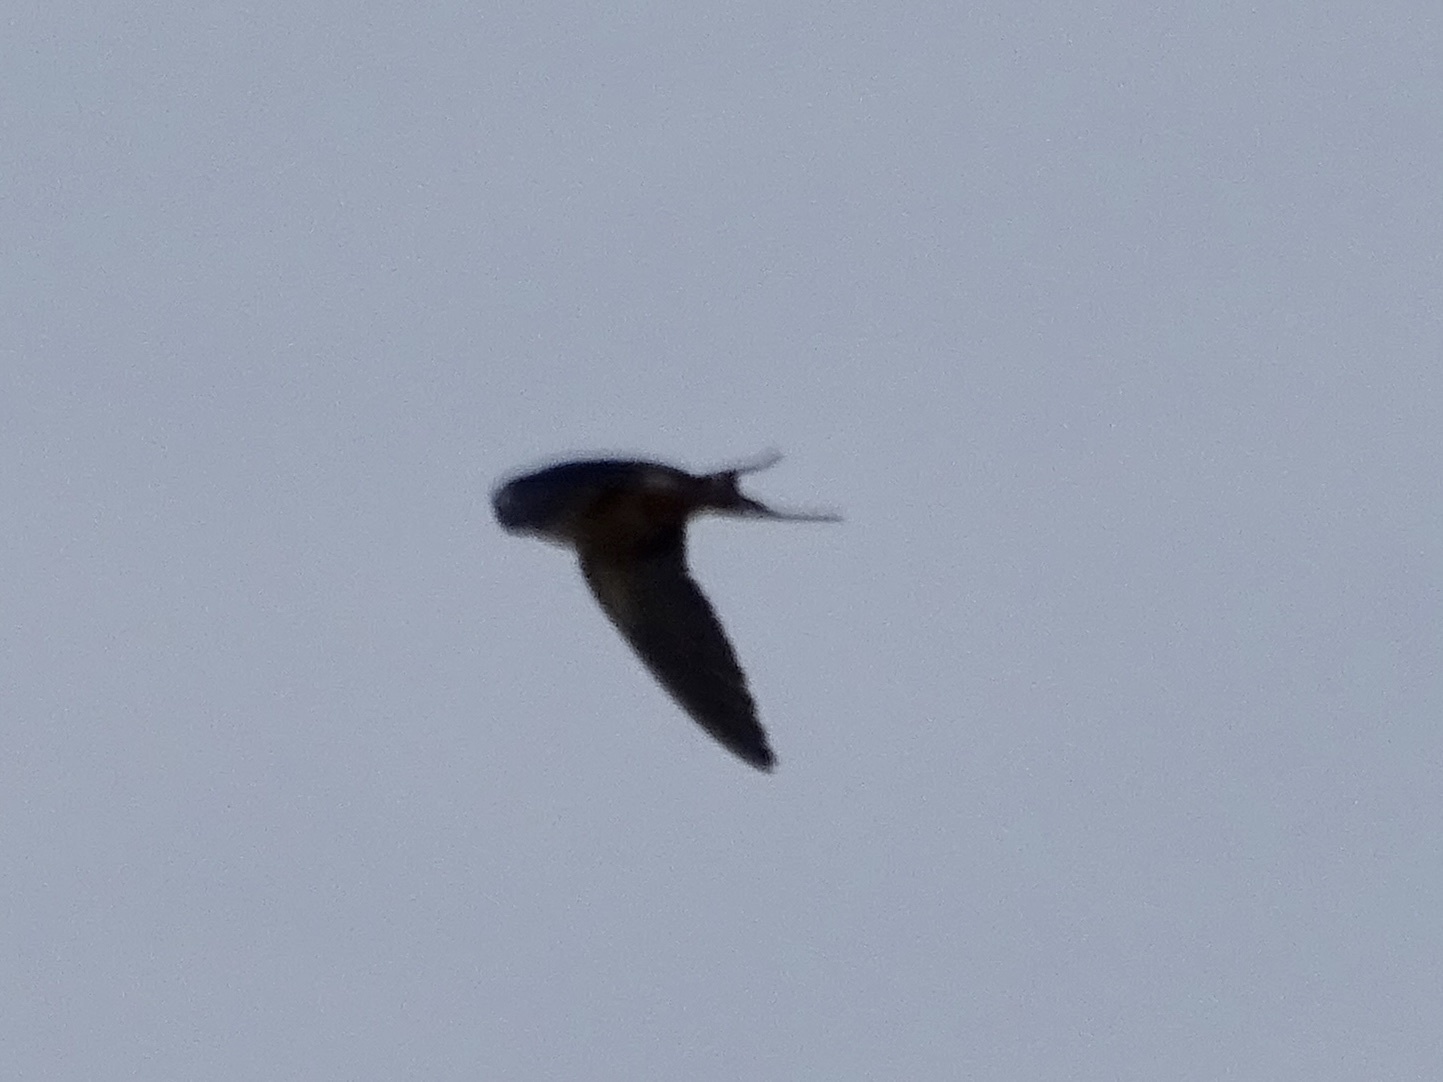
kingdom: Animalia
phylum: Chordata
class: Aves
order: Passeriformes
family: Hirundinidae
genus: Hirundo
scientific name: Hirundo rustica
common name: Barn swallow
